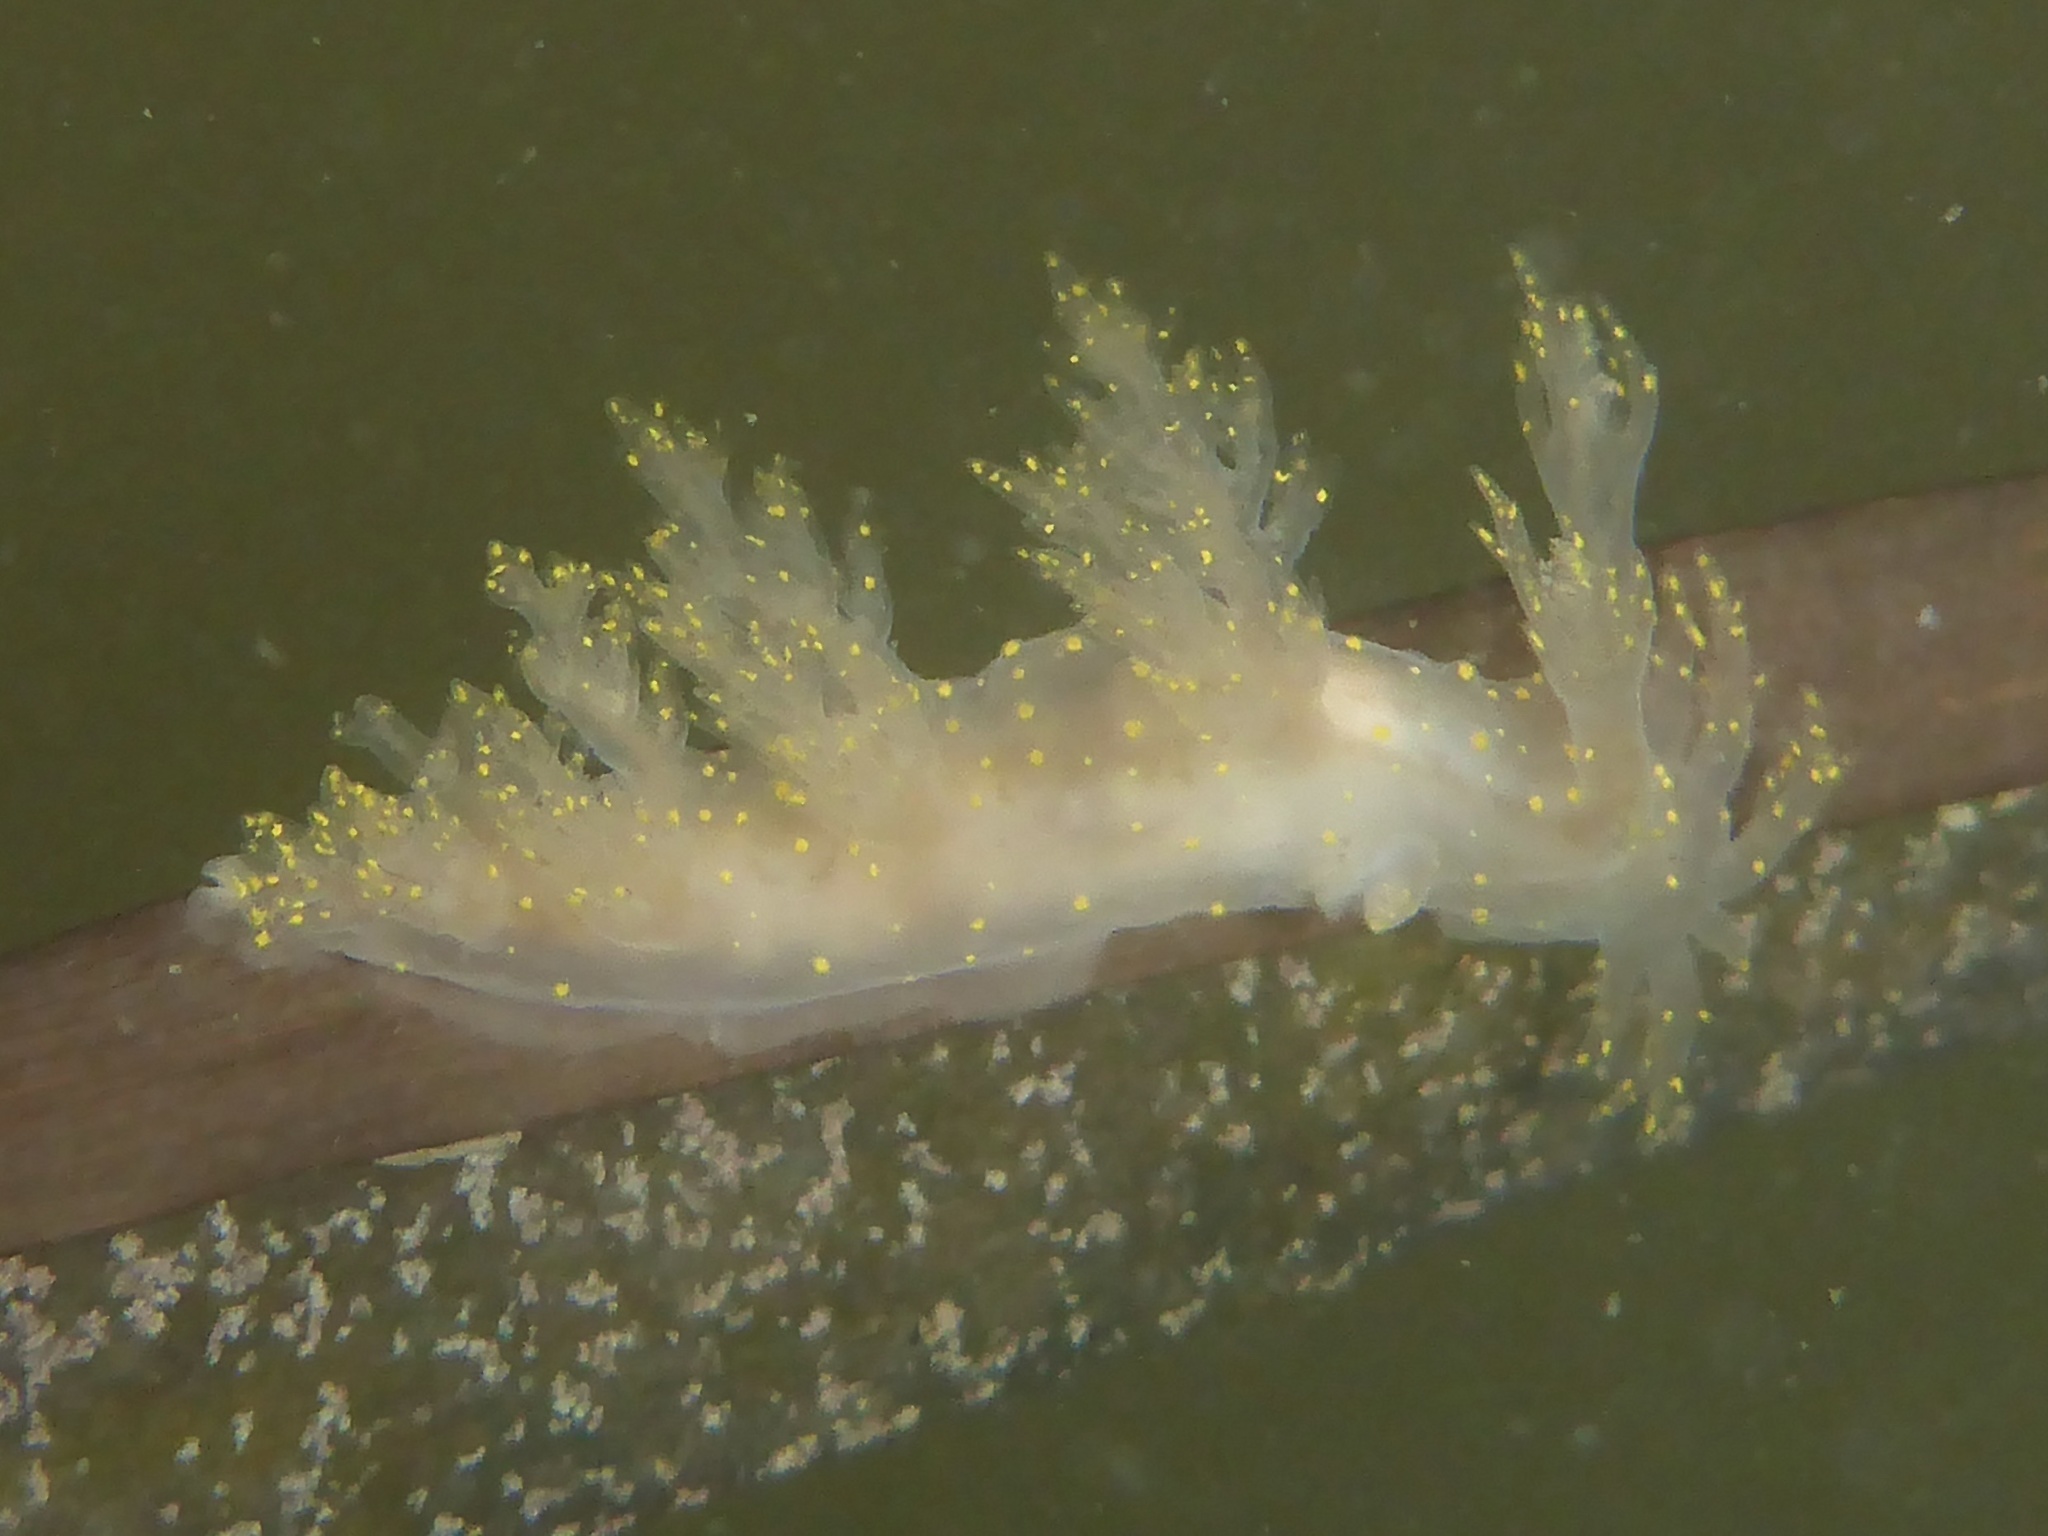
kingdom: Animalia
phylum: Mollusca
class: Gastropoda
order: Nudibranchia
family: Dendronotidae
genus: Dendronotus
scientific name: Dendronotus venustus
